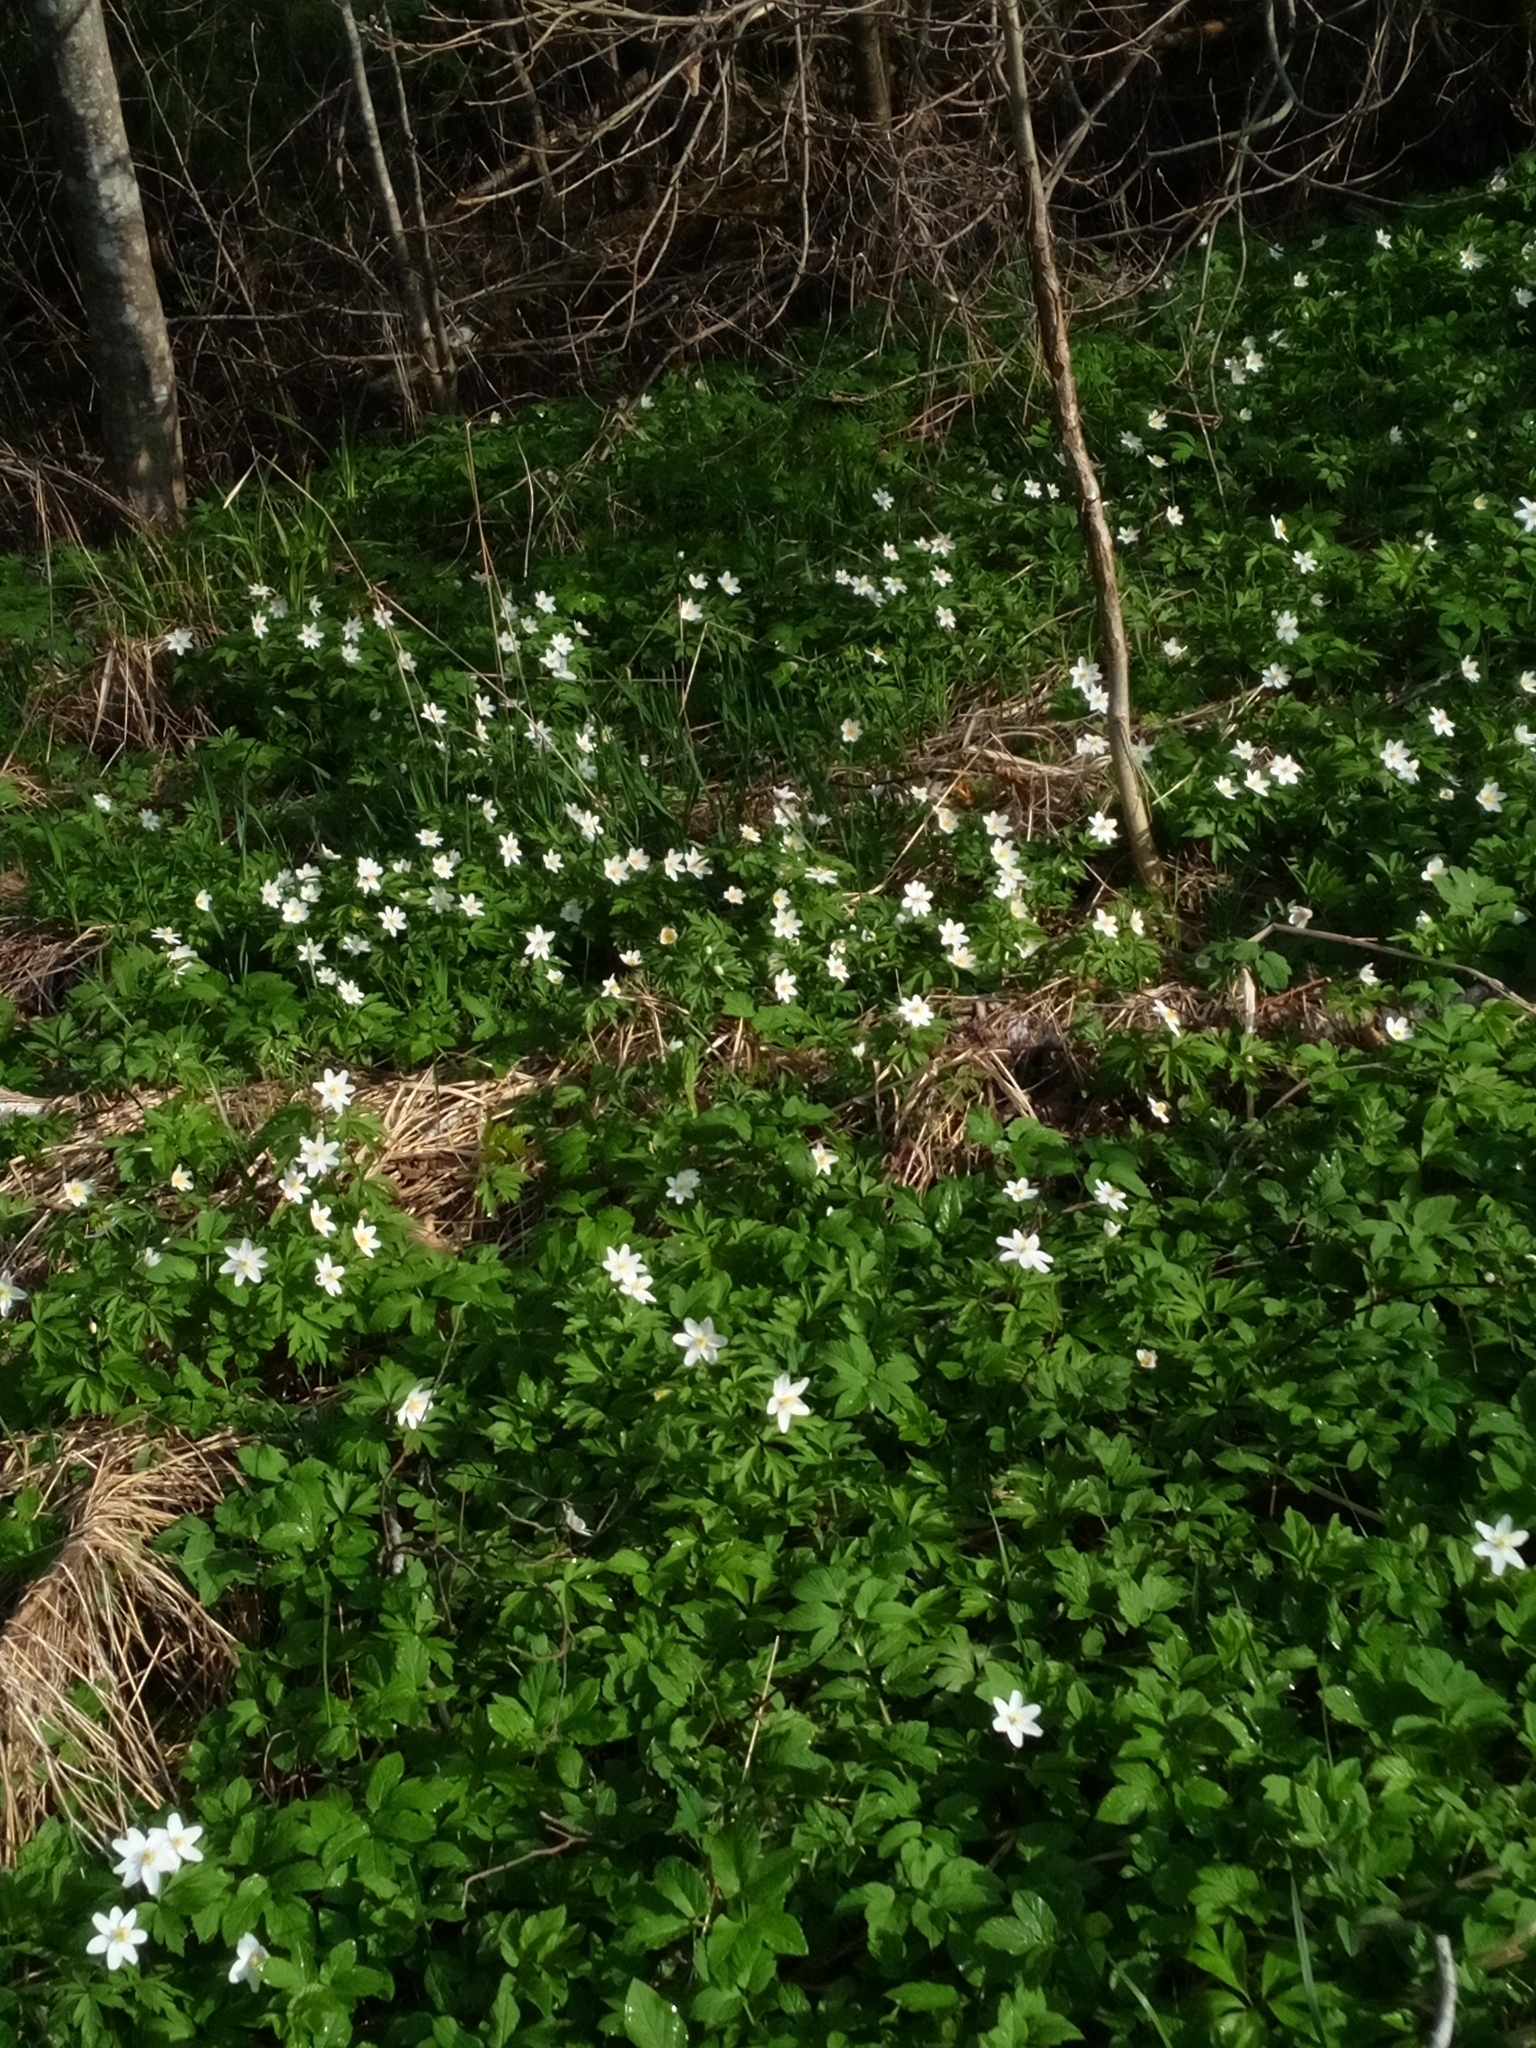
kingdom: Plantae
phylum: Tracheophyta
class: Magnoliopsida
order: Ranunculales
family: Ranunculaceae
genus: Anemone
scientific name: Anemone nemorosa
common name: Wood anemone
